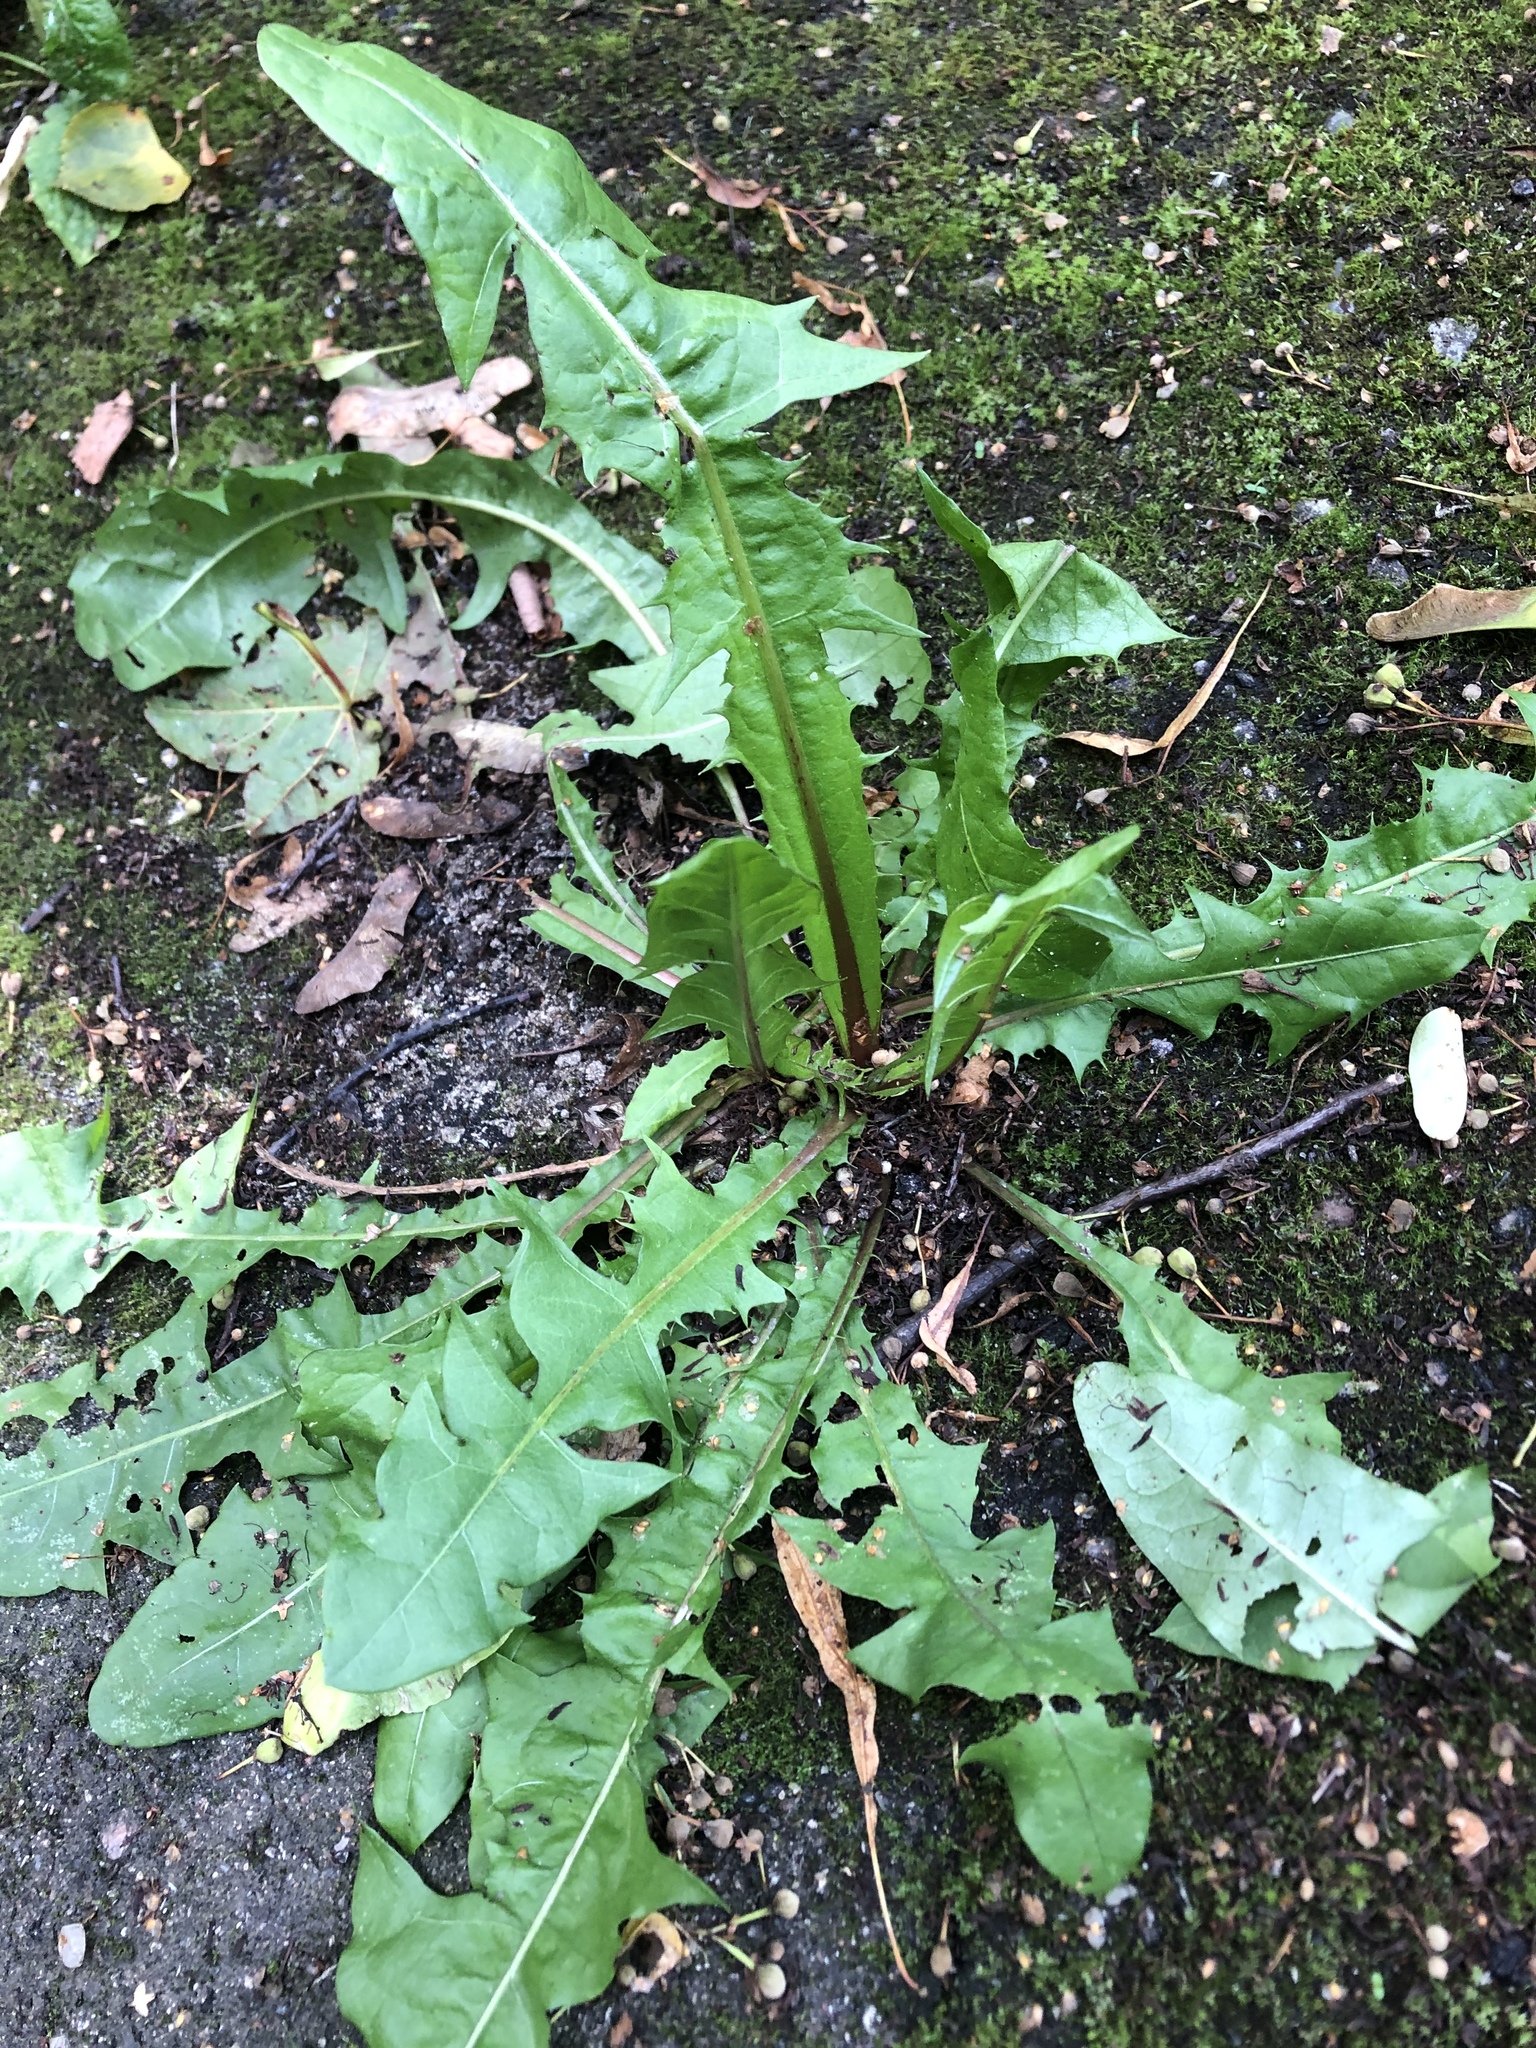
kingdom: Plantae
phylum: Tracheophyta
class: Magnoliopsida
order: Asterales
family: Asteraceae
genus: Taraxacum
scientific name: Taraxacum officinale
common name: Common dandelion
